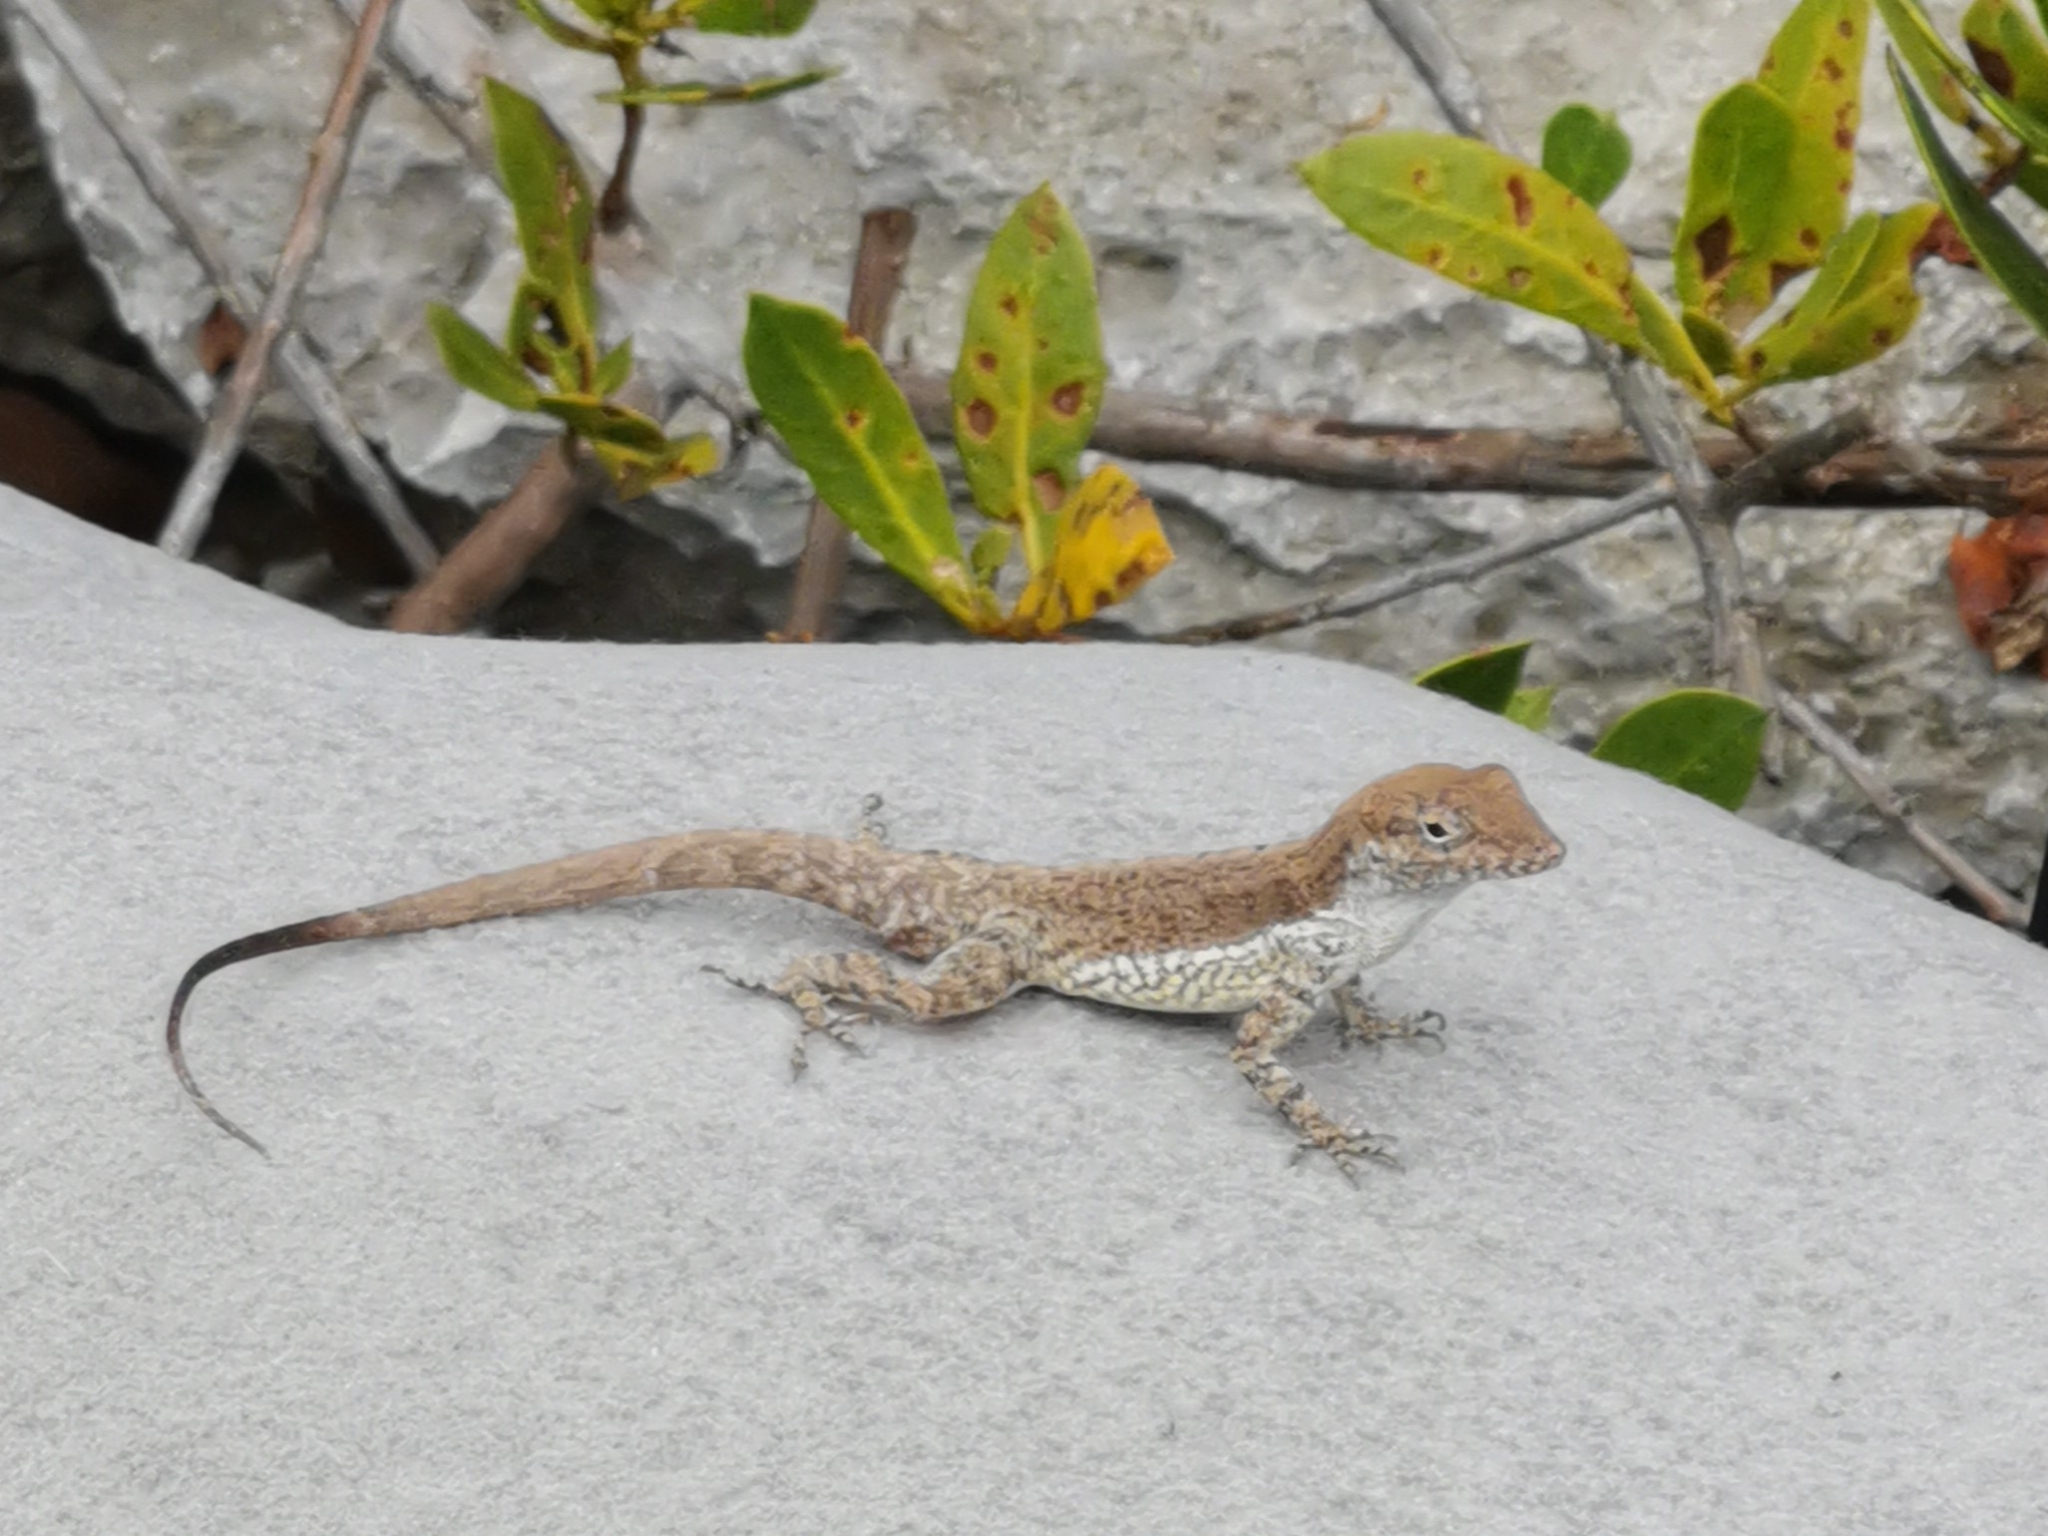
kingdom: Animalia
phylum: Chordata
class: Squamata
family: Dactyloidae
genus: Anolis
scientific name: Anolis scriptus
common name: Silver key anole
